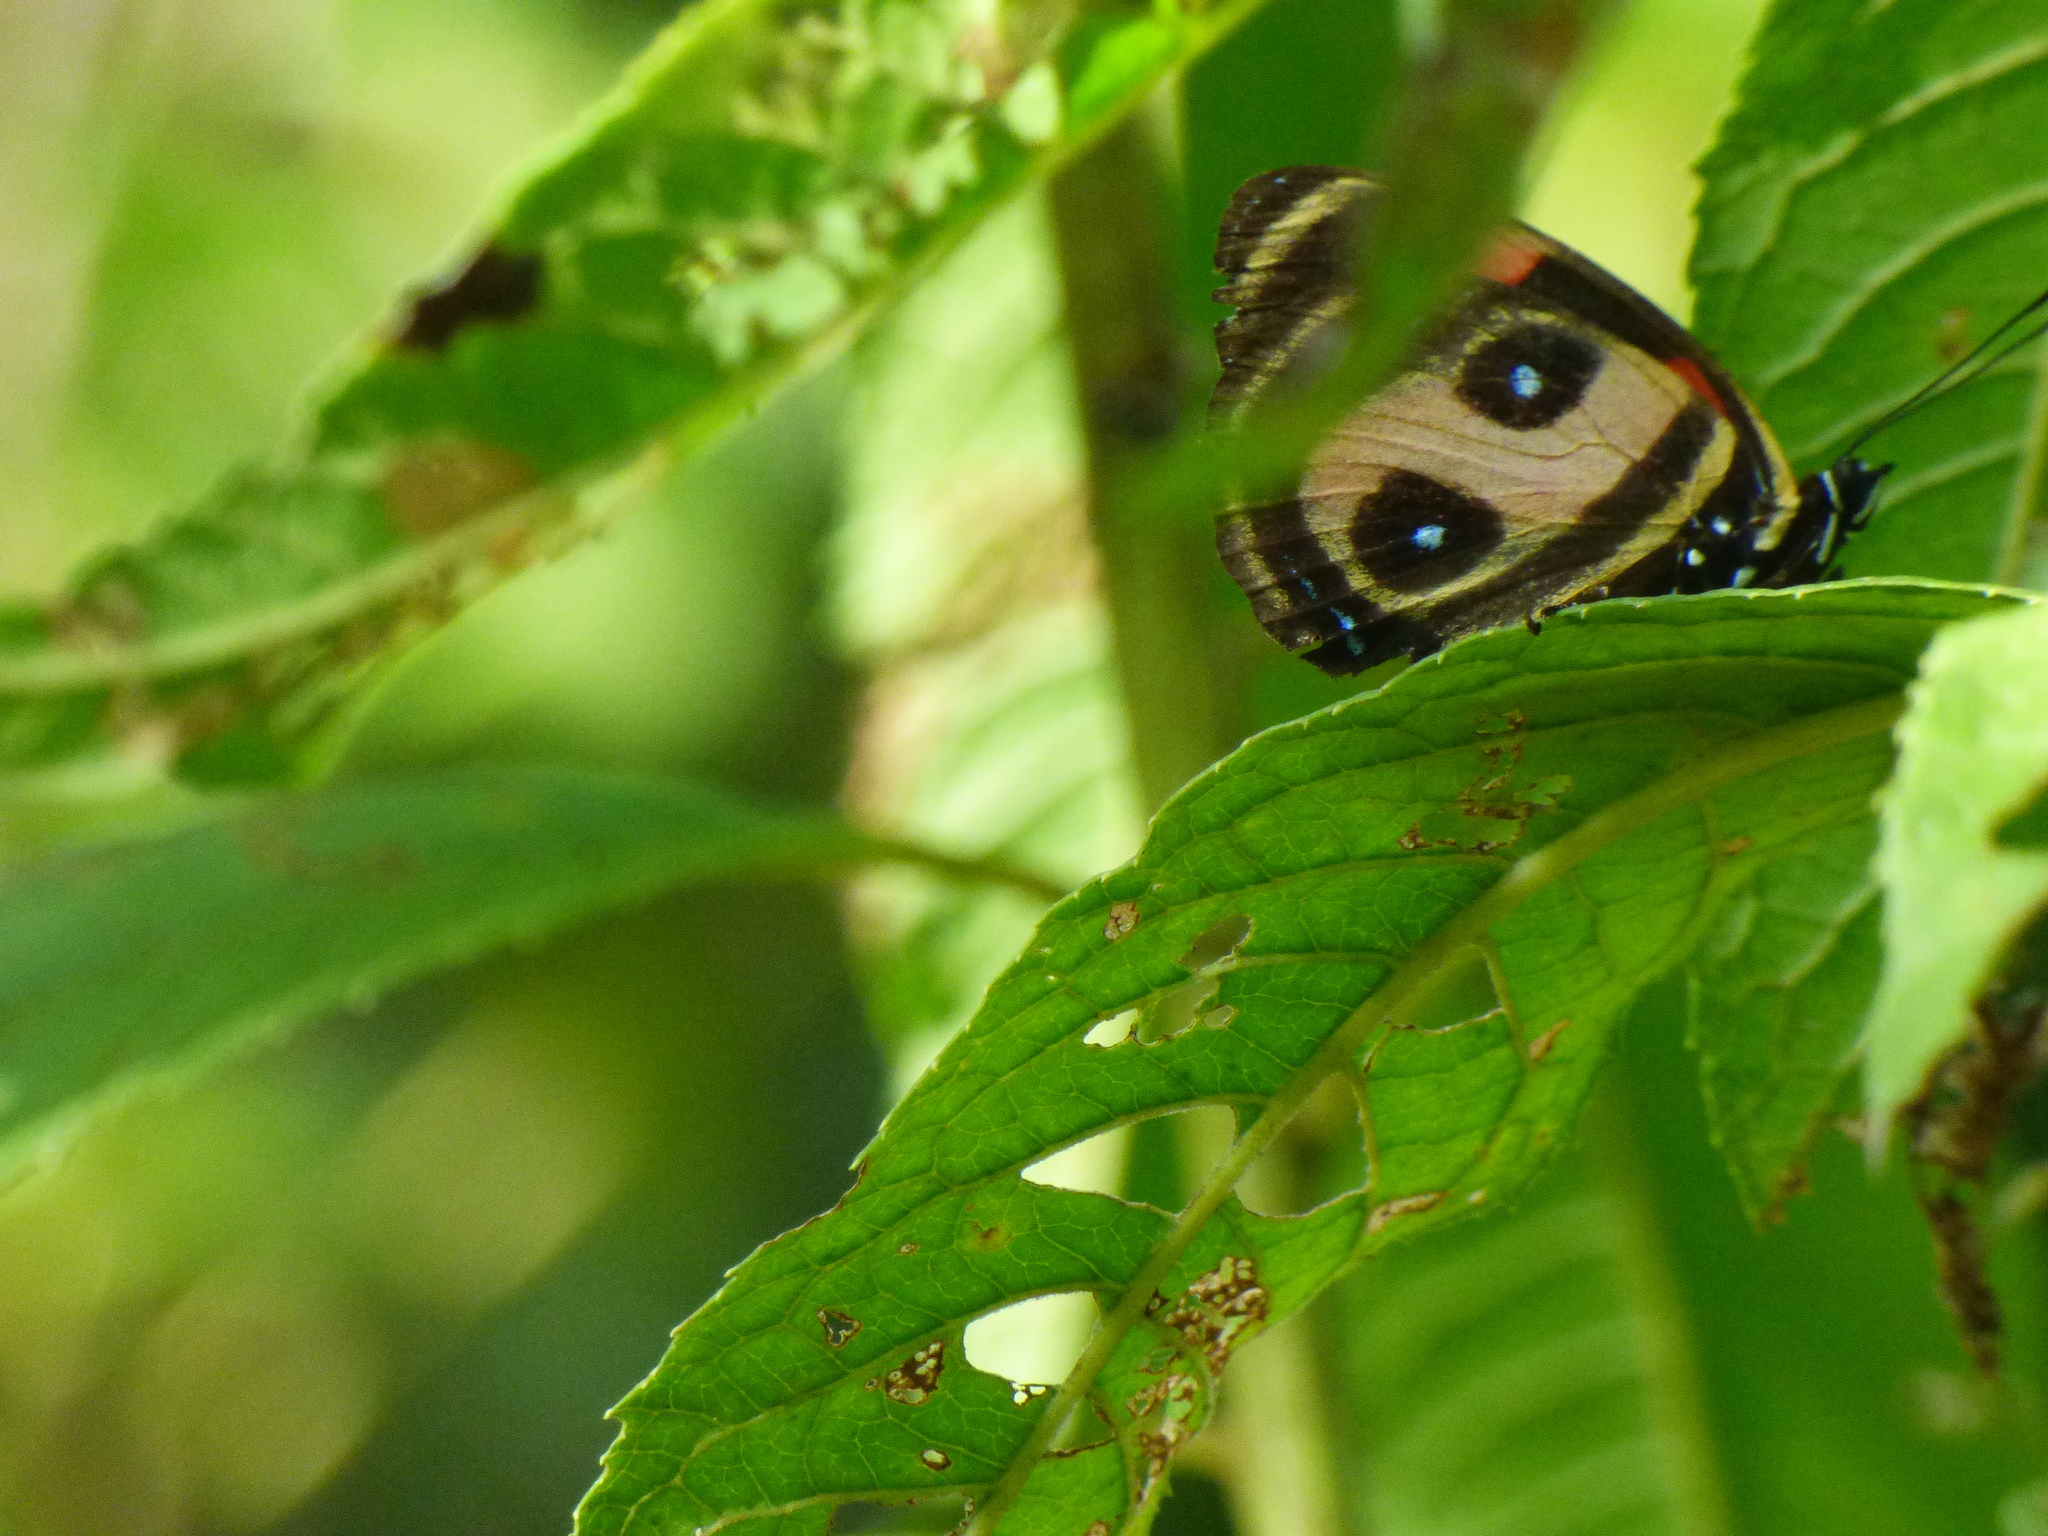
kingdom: Animalia
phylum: Arthropoda
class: Insecta
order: Lepidoptera
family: Nymphalidae
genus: Catagramma
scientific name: Catagramma Callicore pitheas
